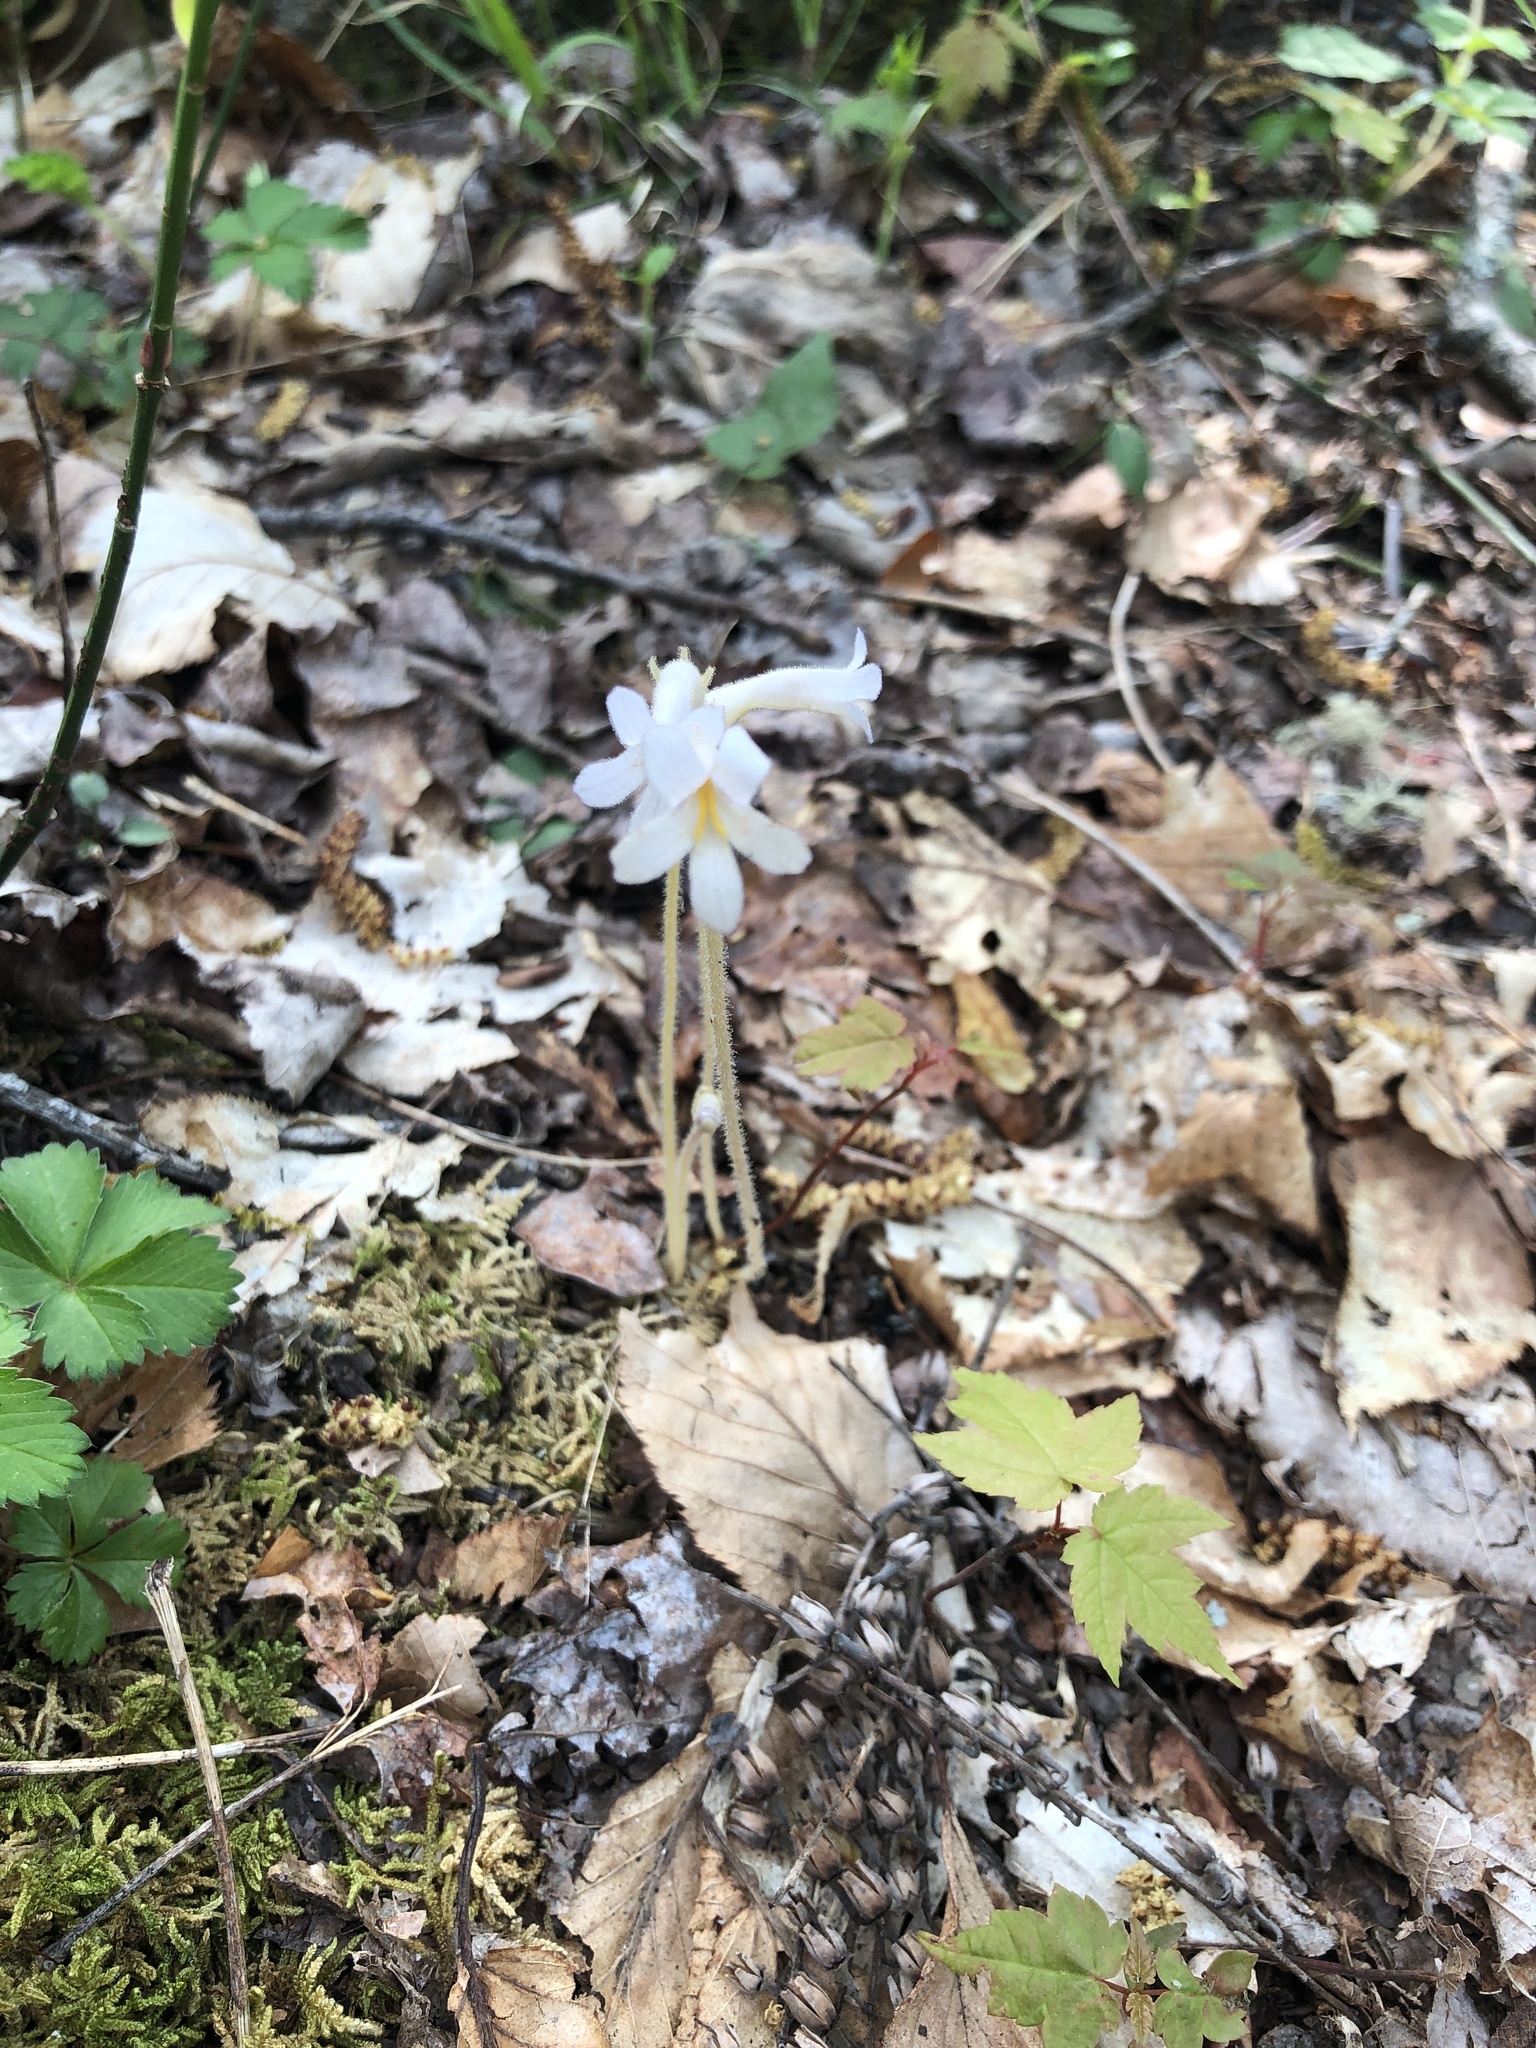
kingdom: Plantae
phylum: Tracheophyta
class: Magnoliopsida
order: Lamiales
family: Orobanchaceae
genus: Aphyllon
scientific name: Aphyllon uniflorum
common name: One-flowered broomrape
